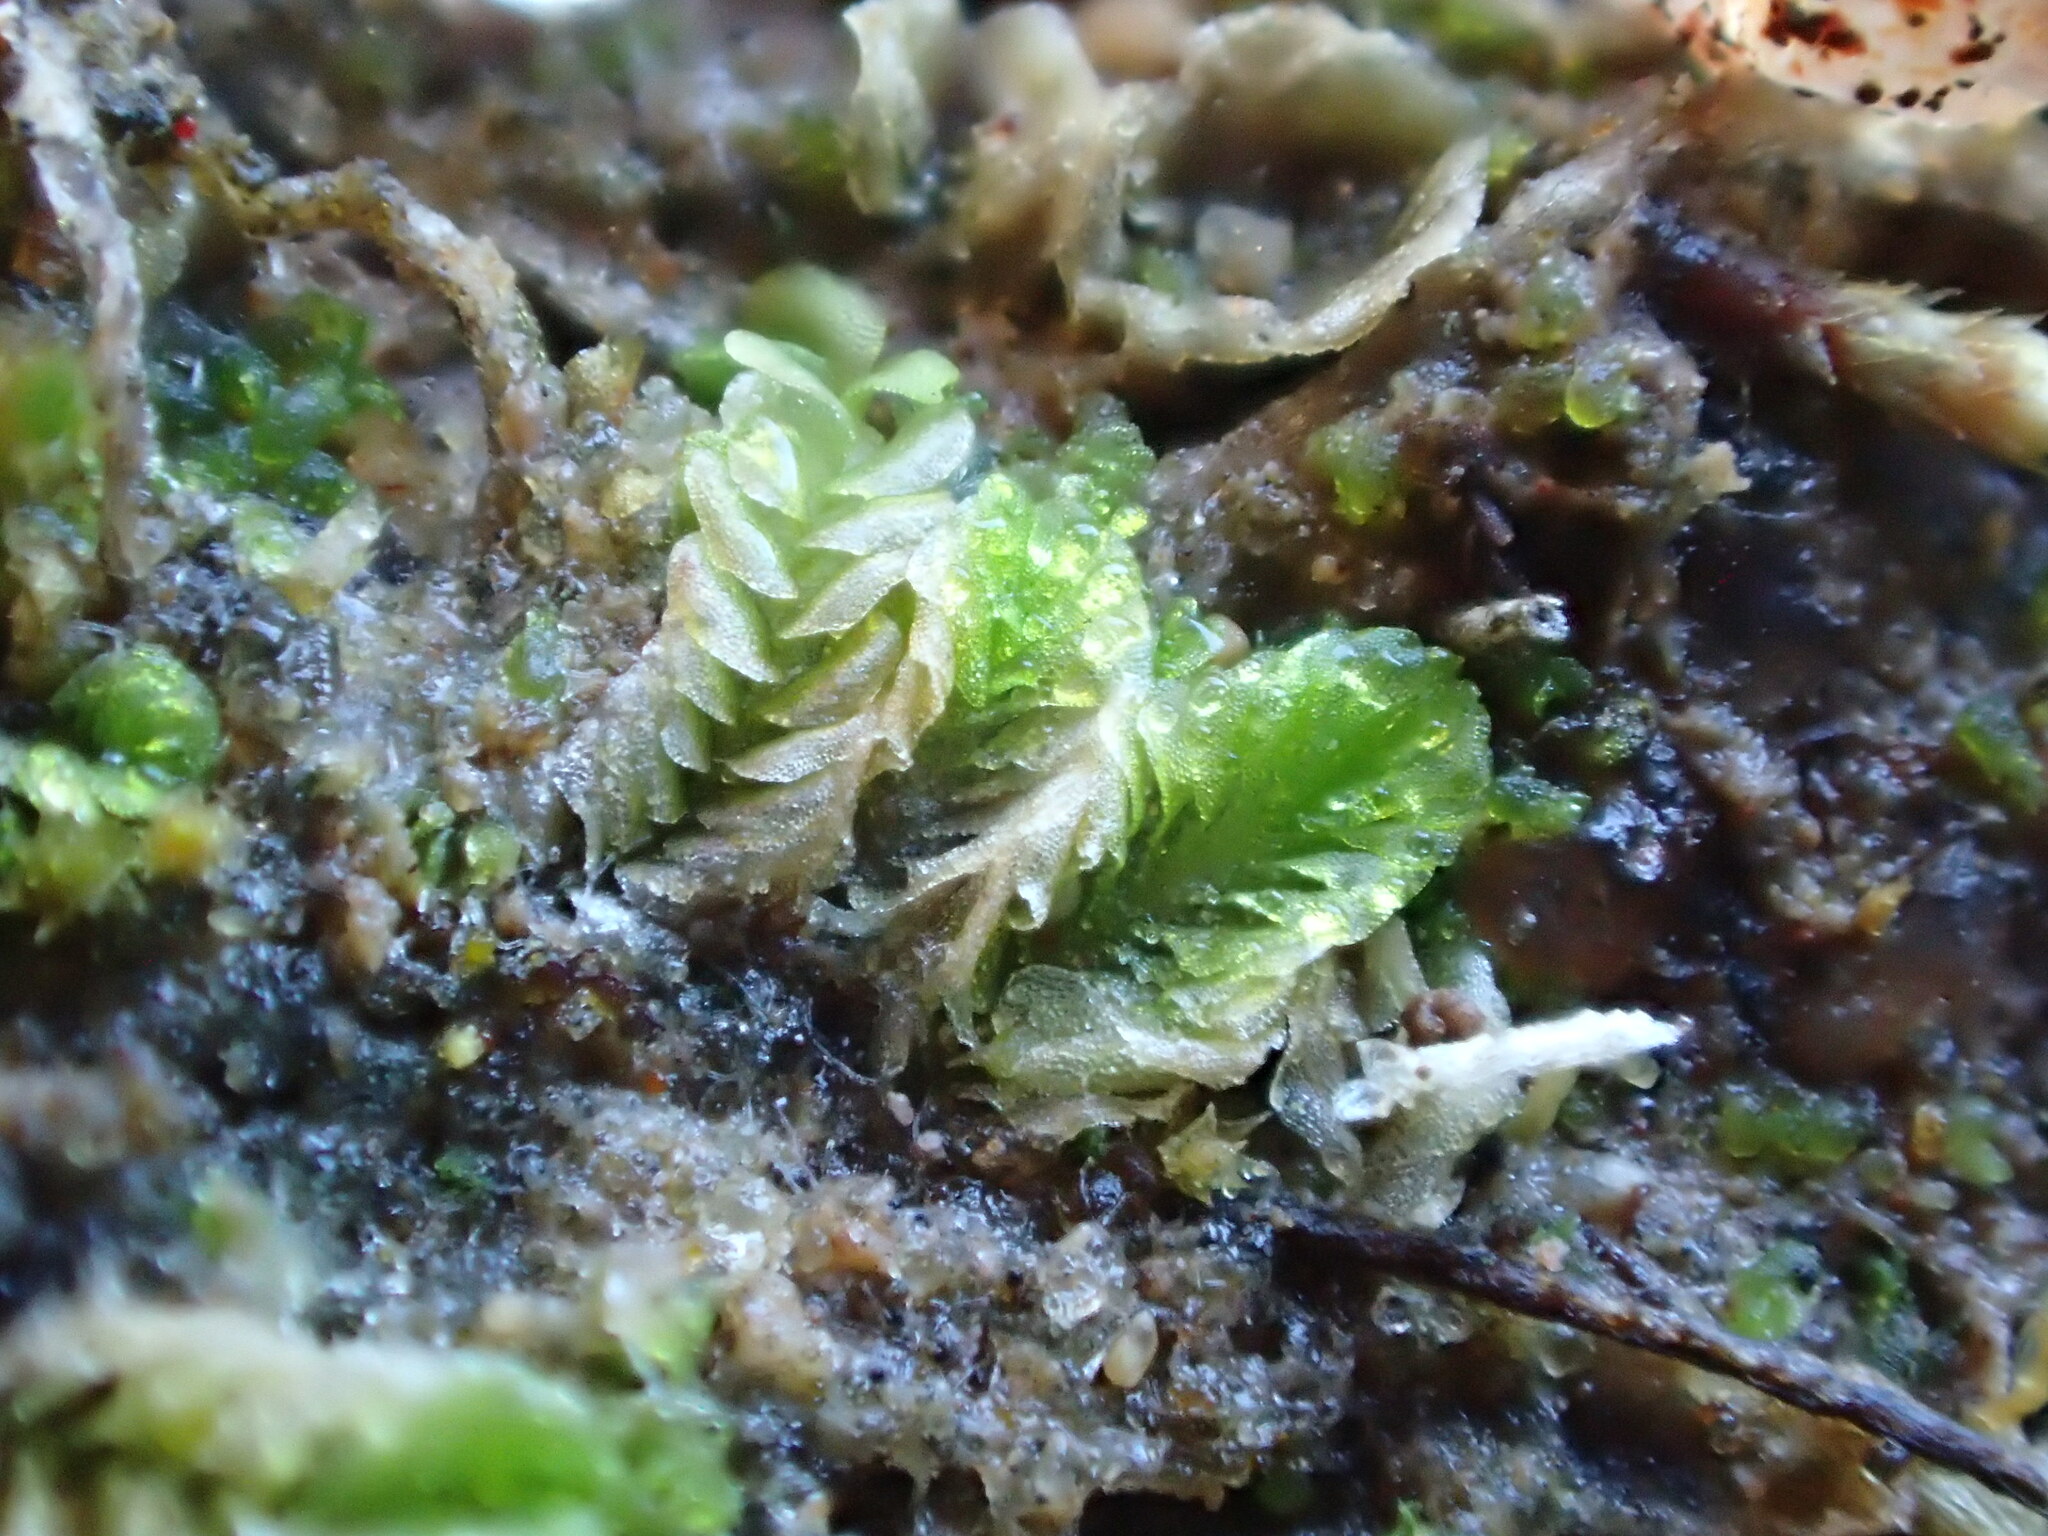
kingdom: Plantae
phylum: Marchantiophyta
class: Jungermanniopsida
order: Jungermanniales
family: Acrobolbaceae
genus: Lethocolea
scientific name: Lethocolea pansa
